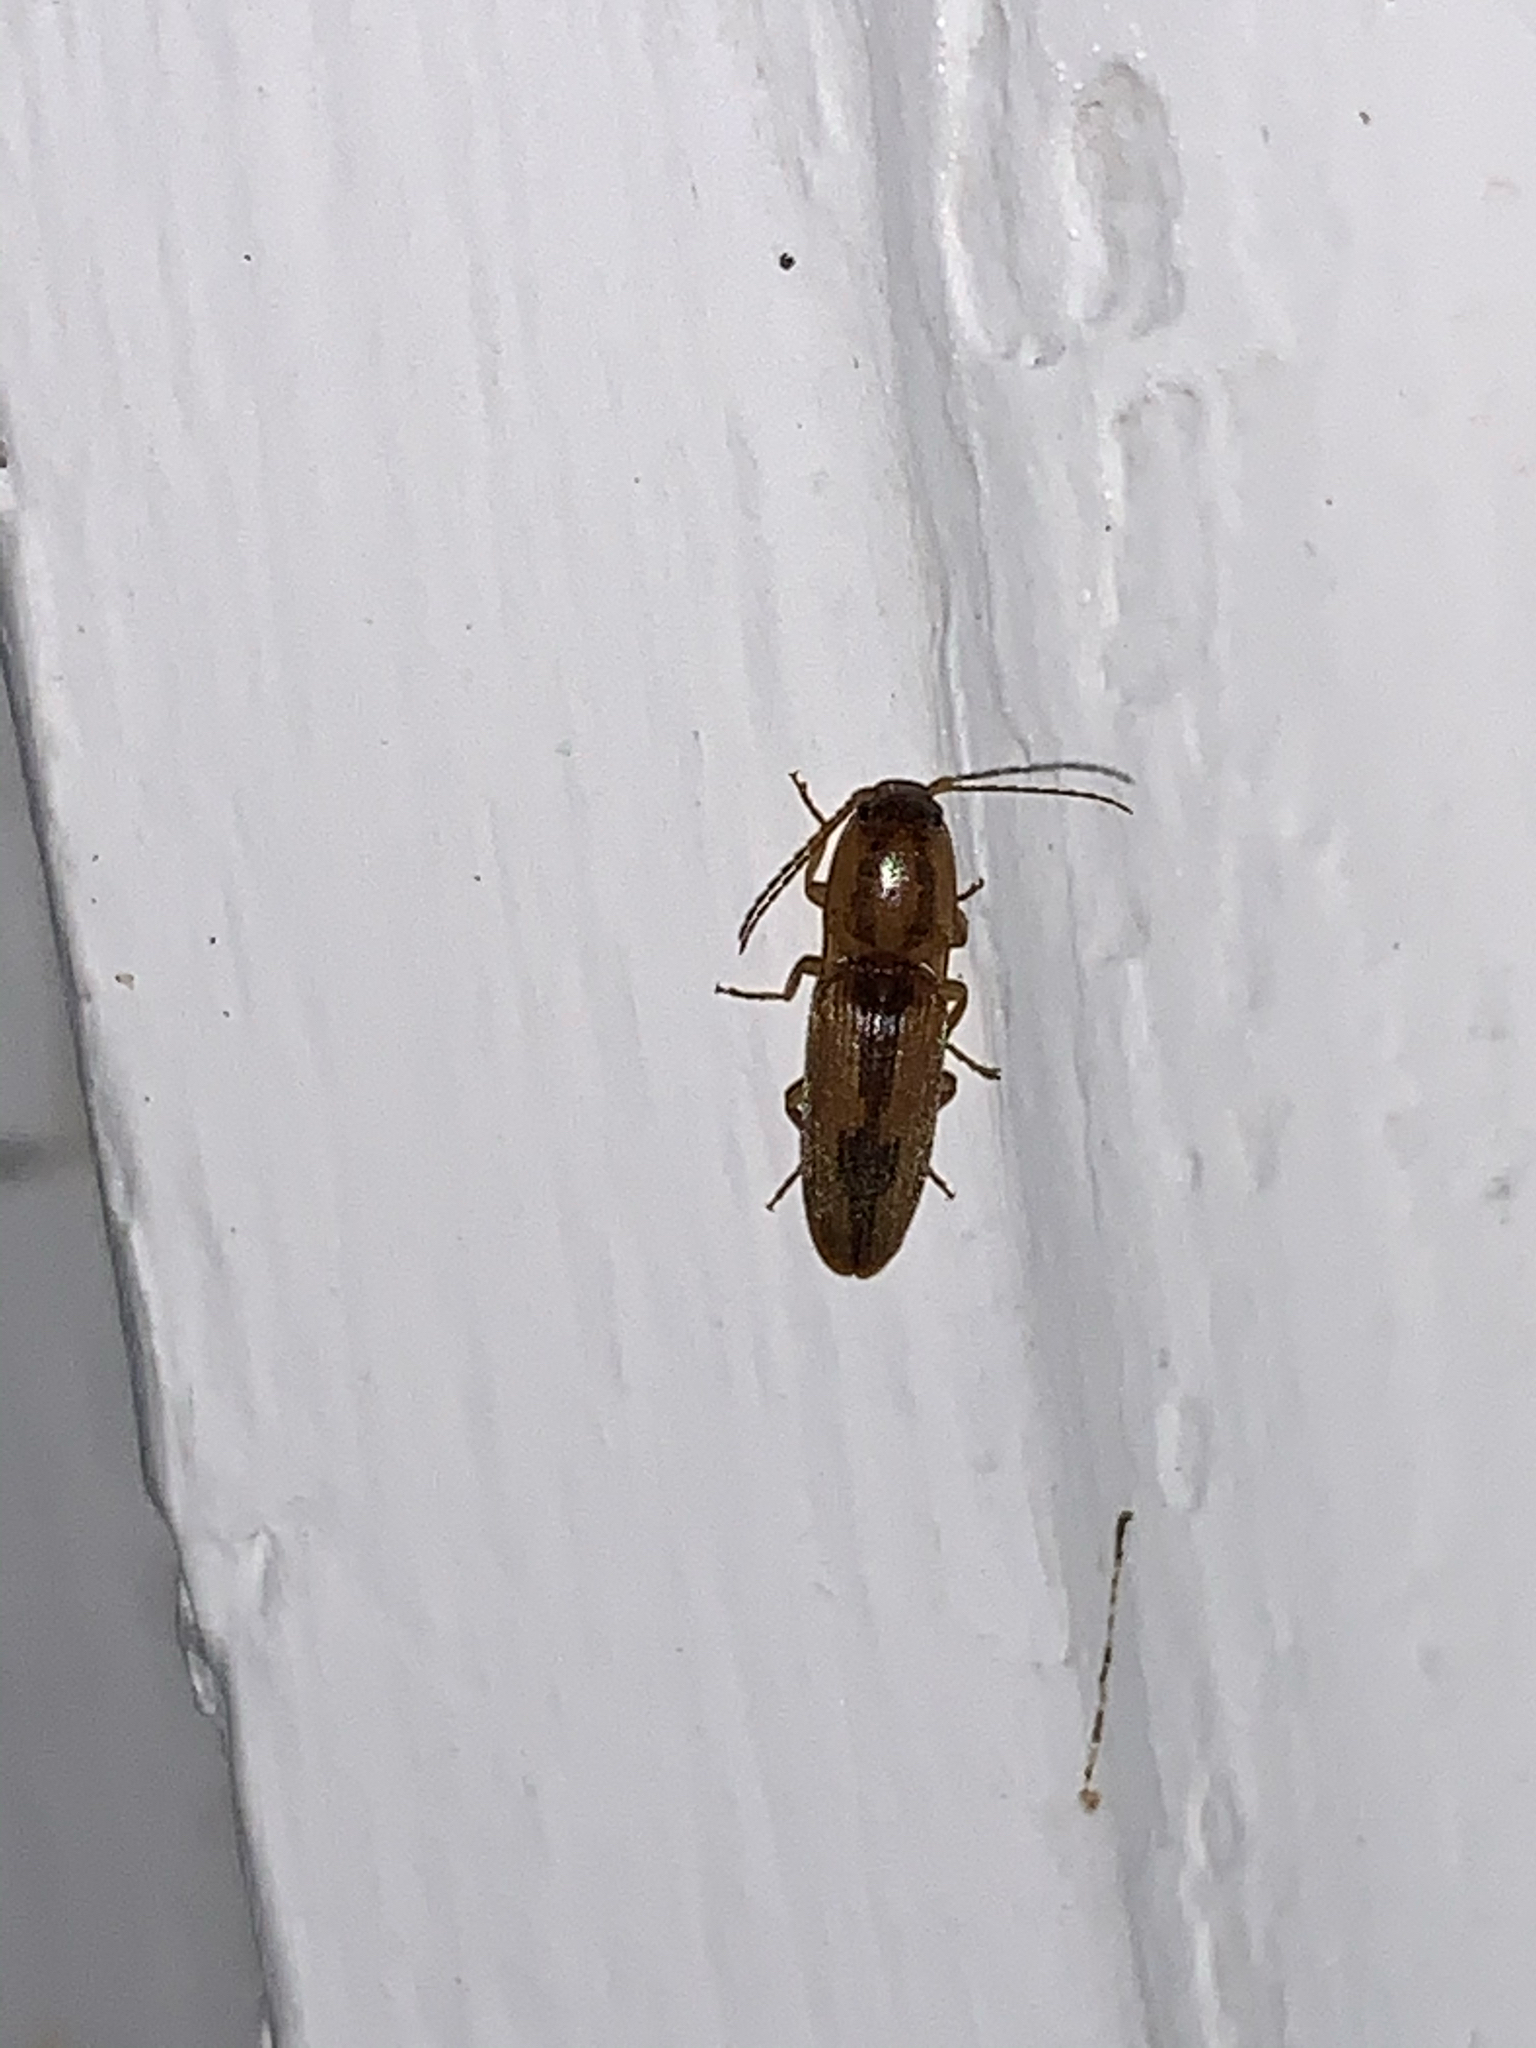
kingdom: Animalia
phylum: Arthropoda
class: Insecta
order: Coleoptera
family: Elateridae
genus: Monocrepidius
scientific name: Monocrepidius
